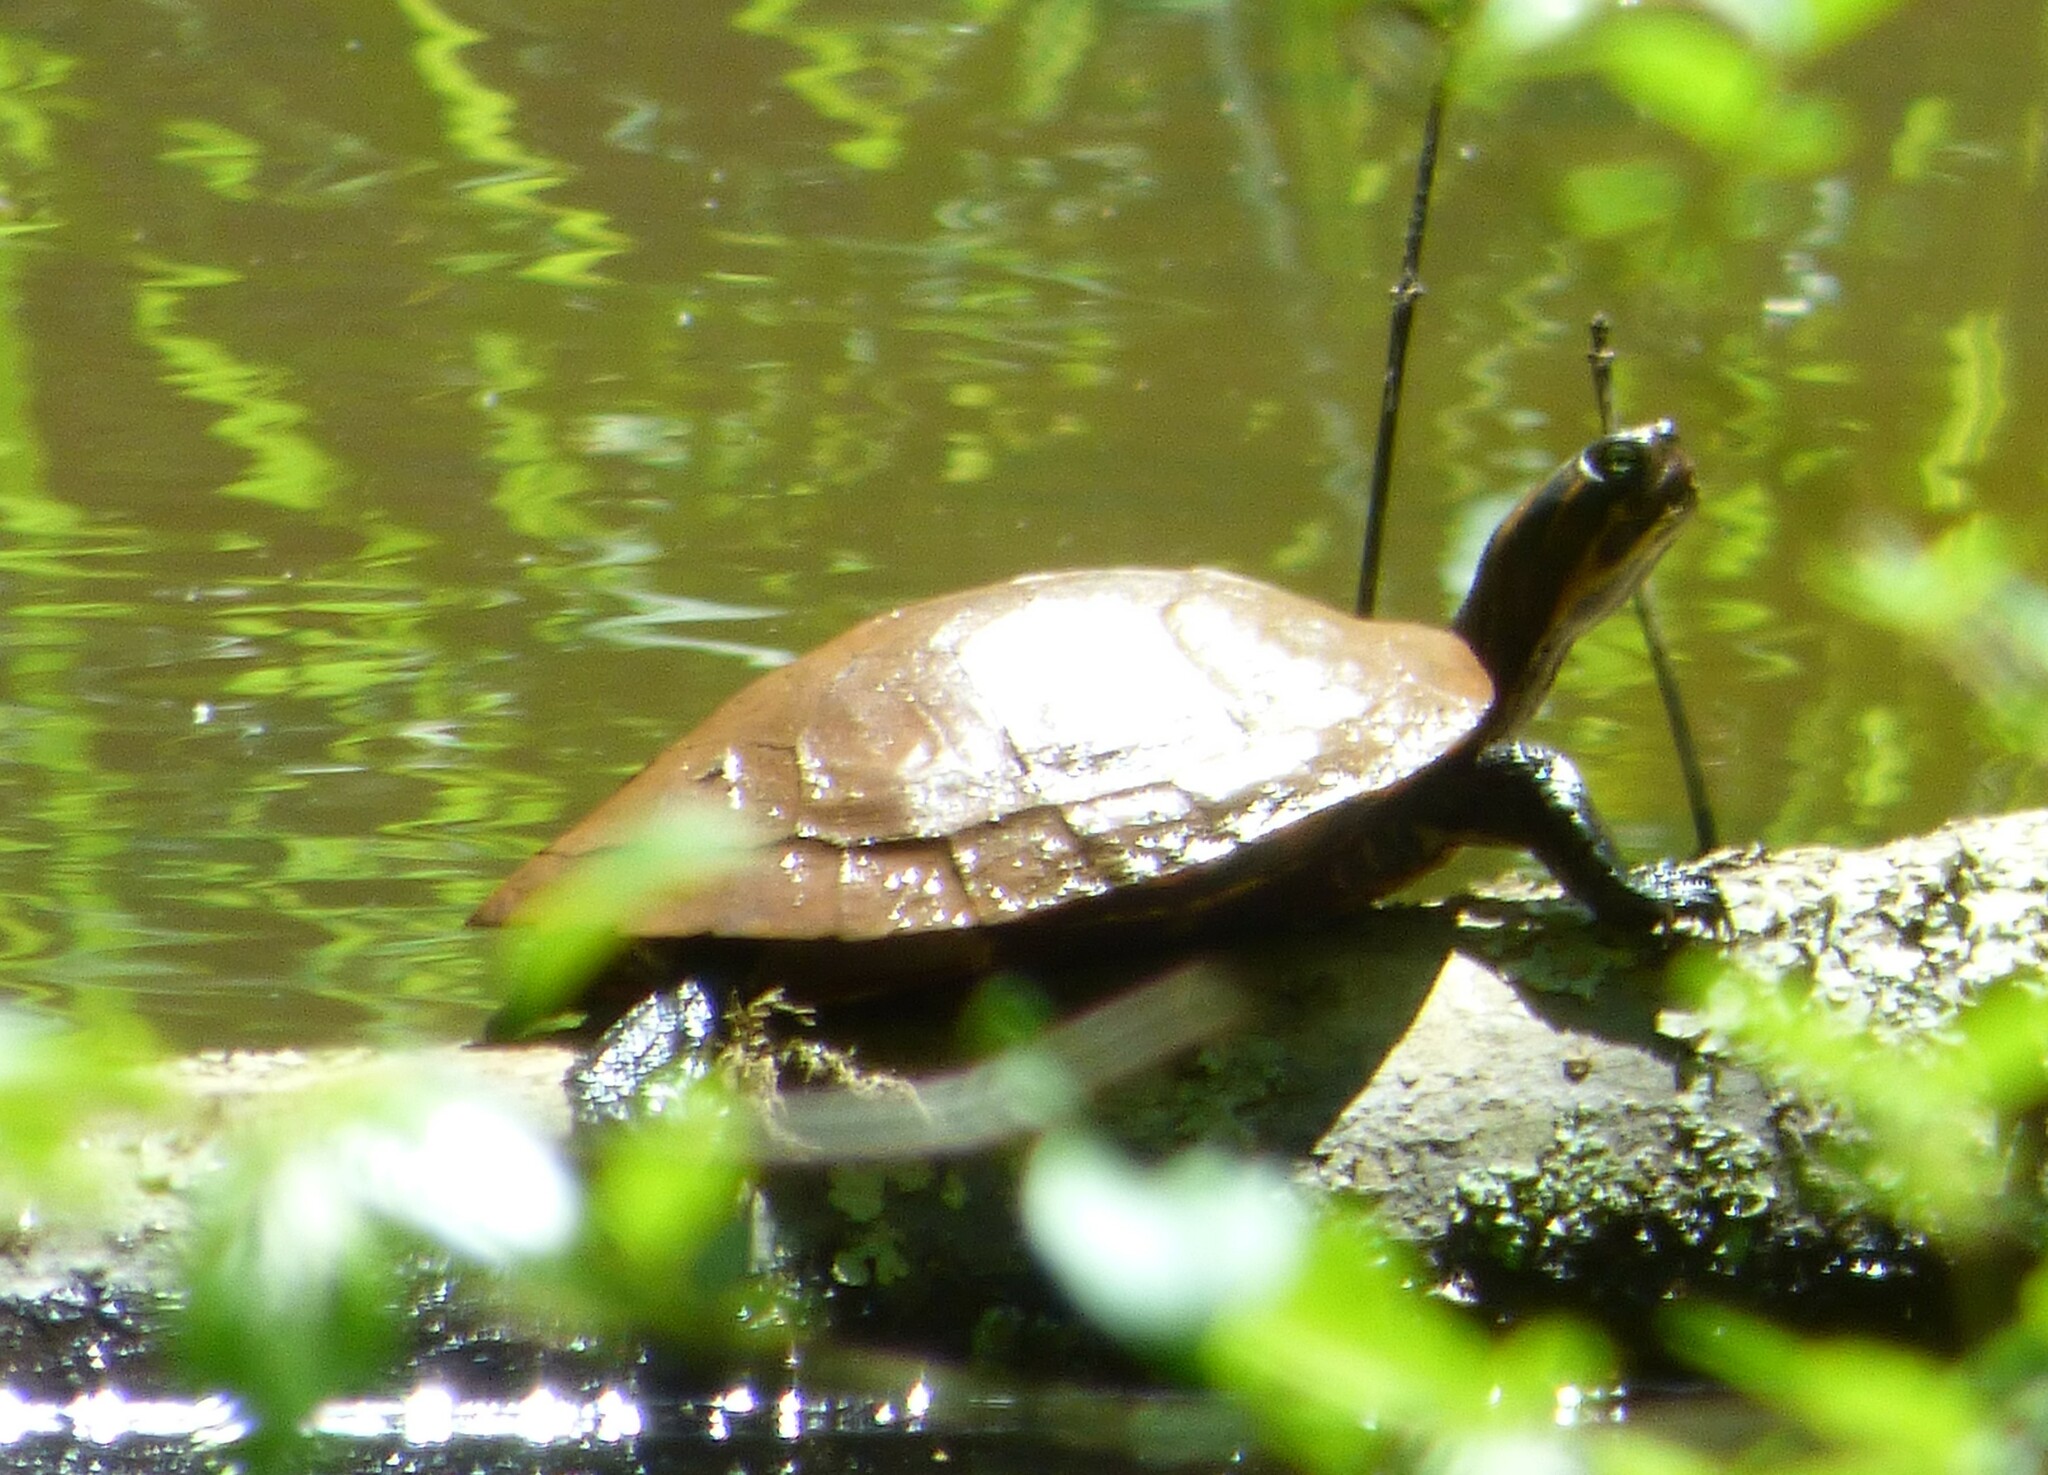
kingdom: Animalia
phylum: Chordata
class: Testudines
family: Emydidae
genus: Pseudemys
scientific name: Pseudemys concinna
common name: Eastern river cooter
